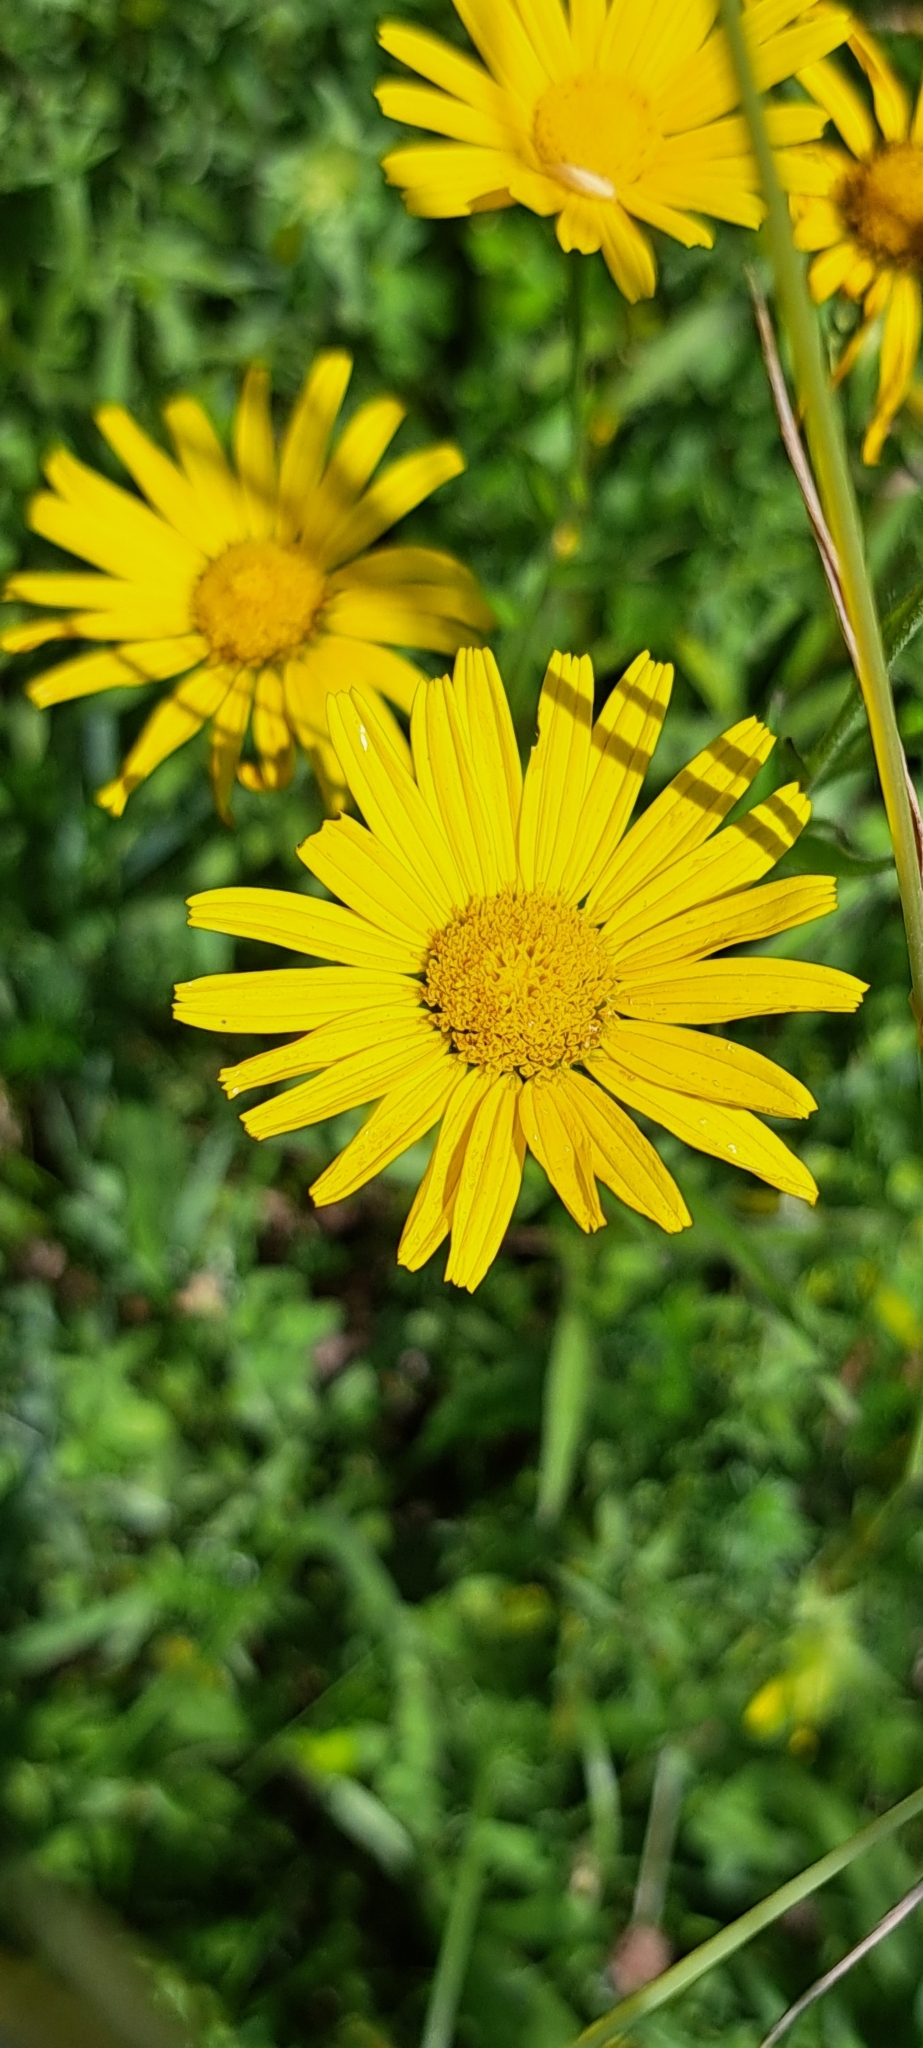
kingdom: Plantae
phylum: Tracheophyta
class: Magnoliopsida
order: Asterales
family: Asteraceae
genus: Buphthalmum
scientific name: Buphthalmum salicifolium
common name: Willow-leaved yellow-oxeye
